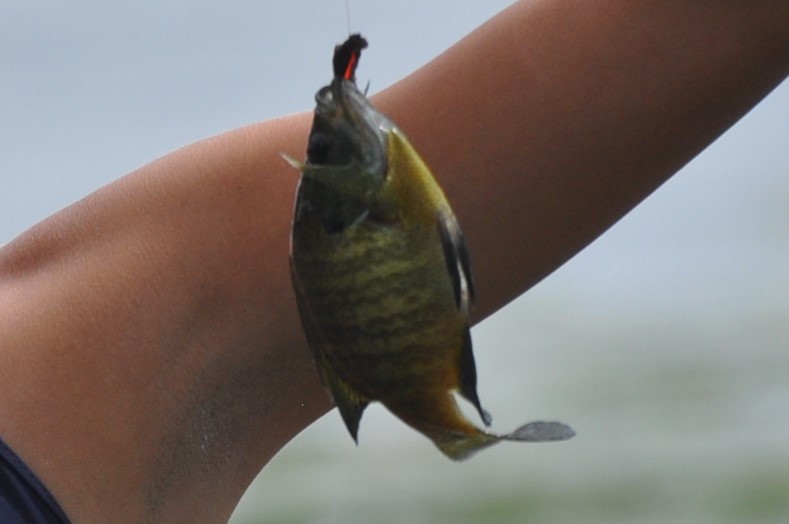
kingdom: Animalia
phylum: Chordata
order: Perciformes
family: Centrarchidae
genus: Lepomis
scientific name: Lepomis macrochirus
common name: Bluegill
